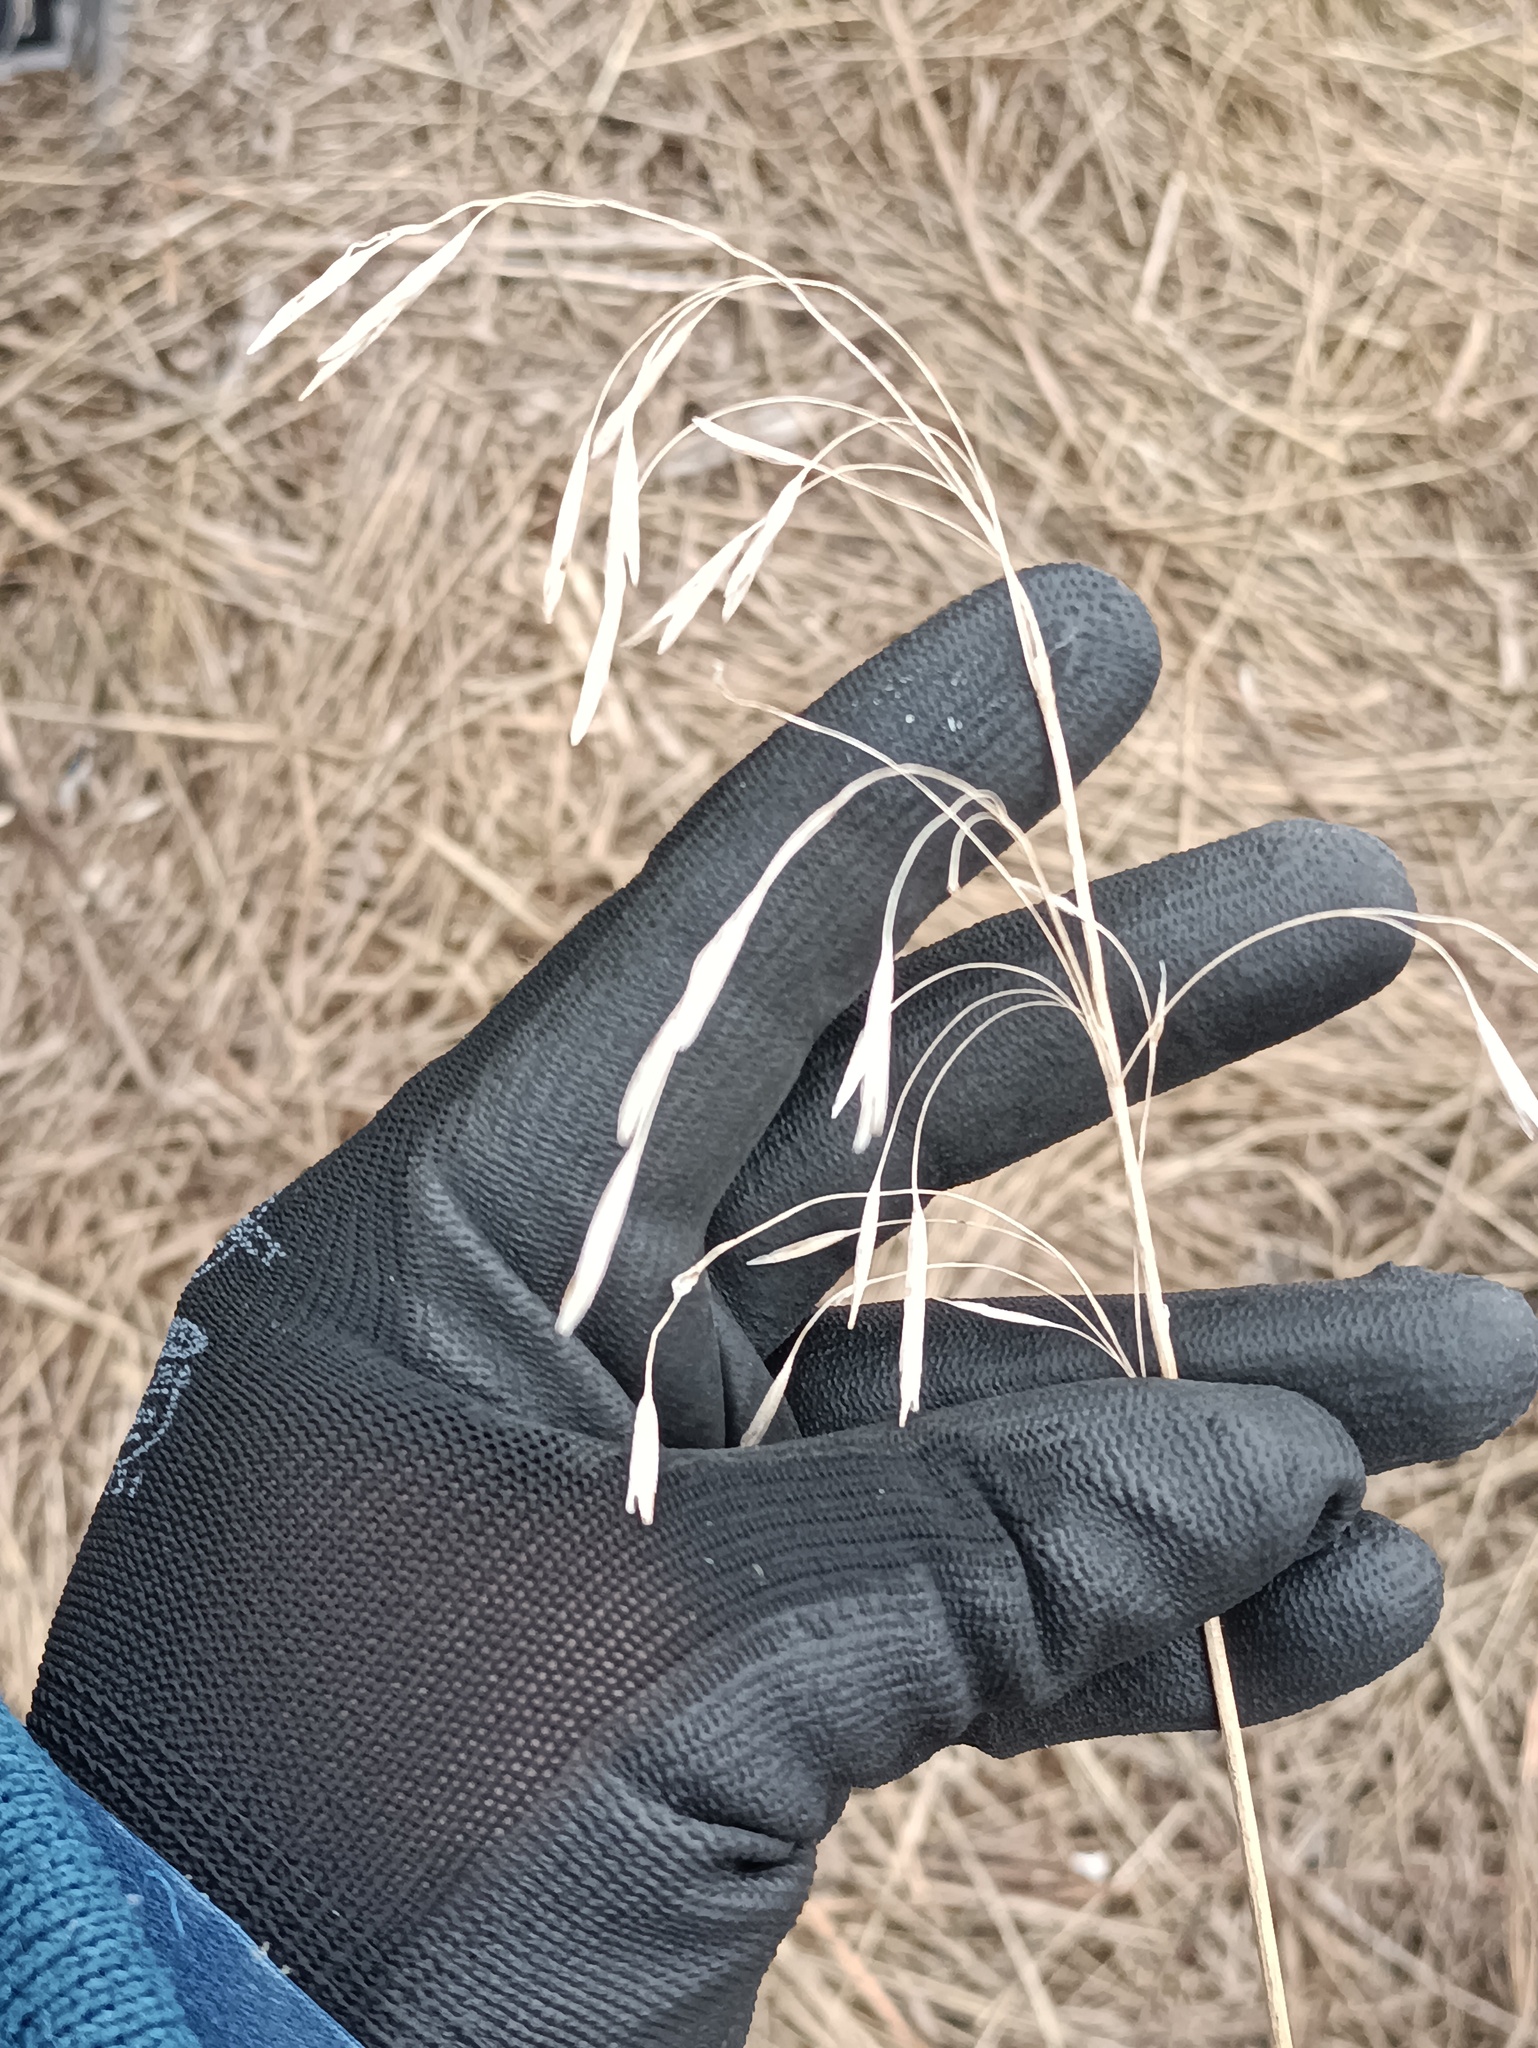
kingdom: Plantae
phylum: Tracheophyta
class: Liliopsida
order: Poales
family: Poaceae
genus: Bromus
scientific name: Bromus inermis
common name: Smooth brome
